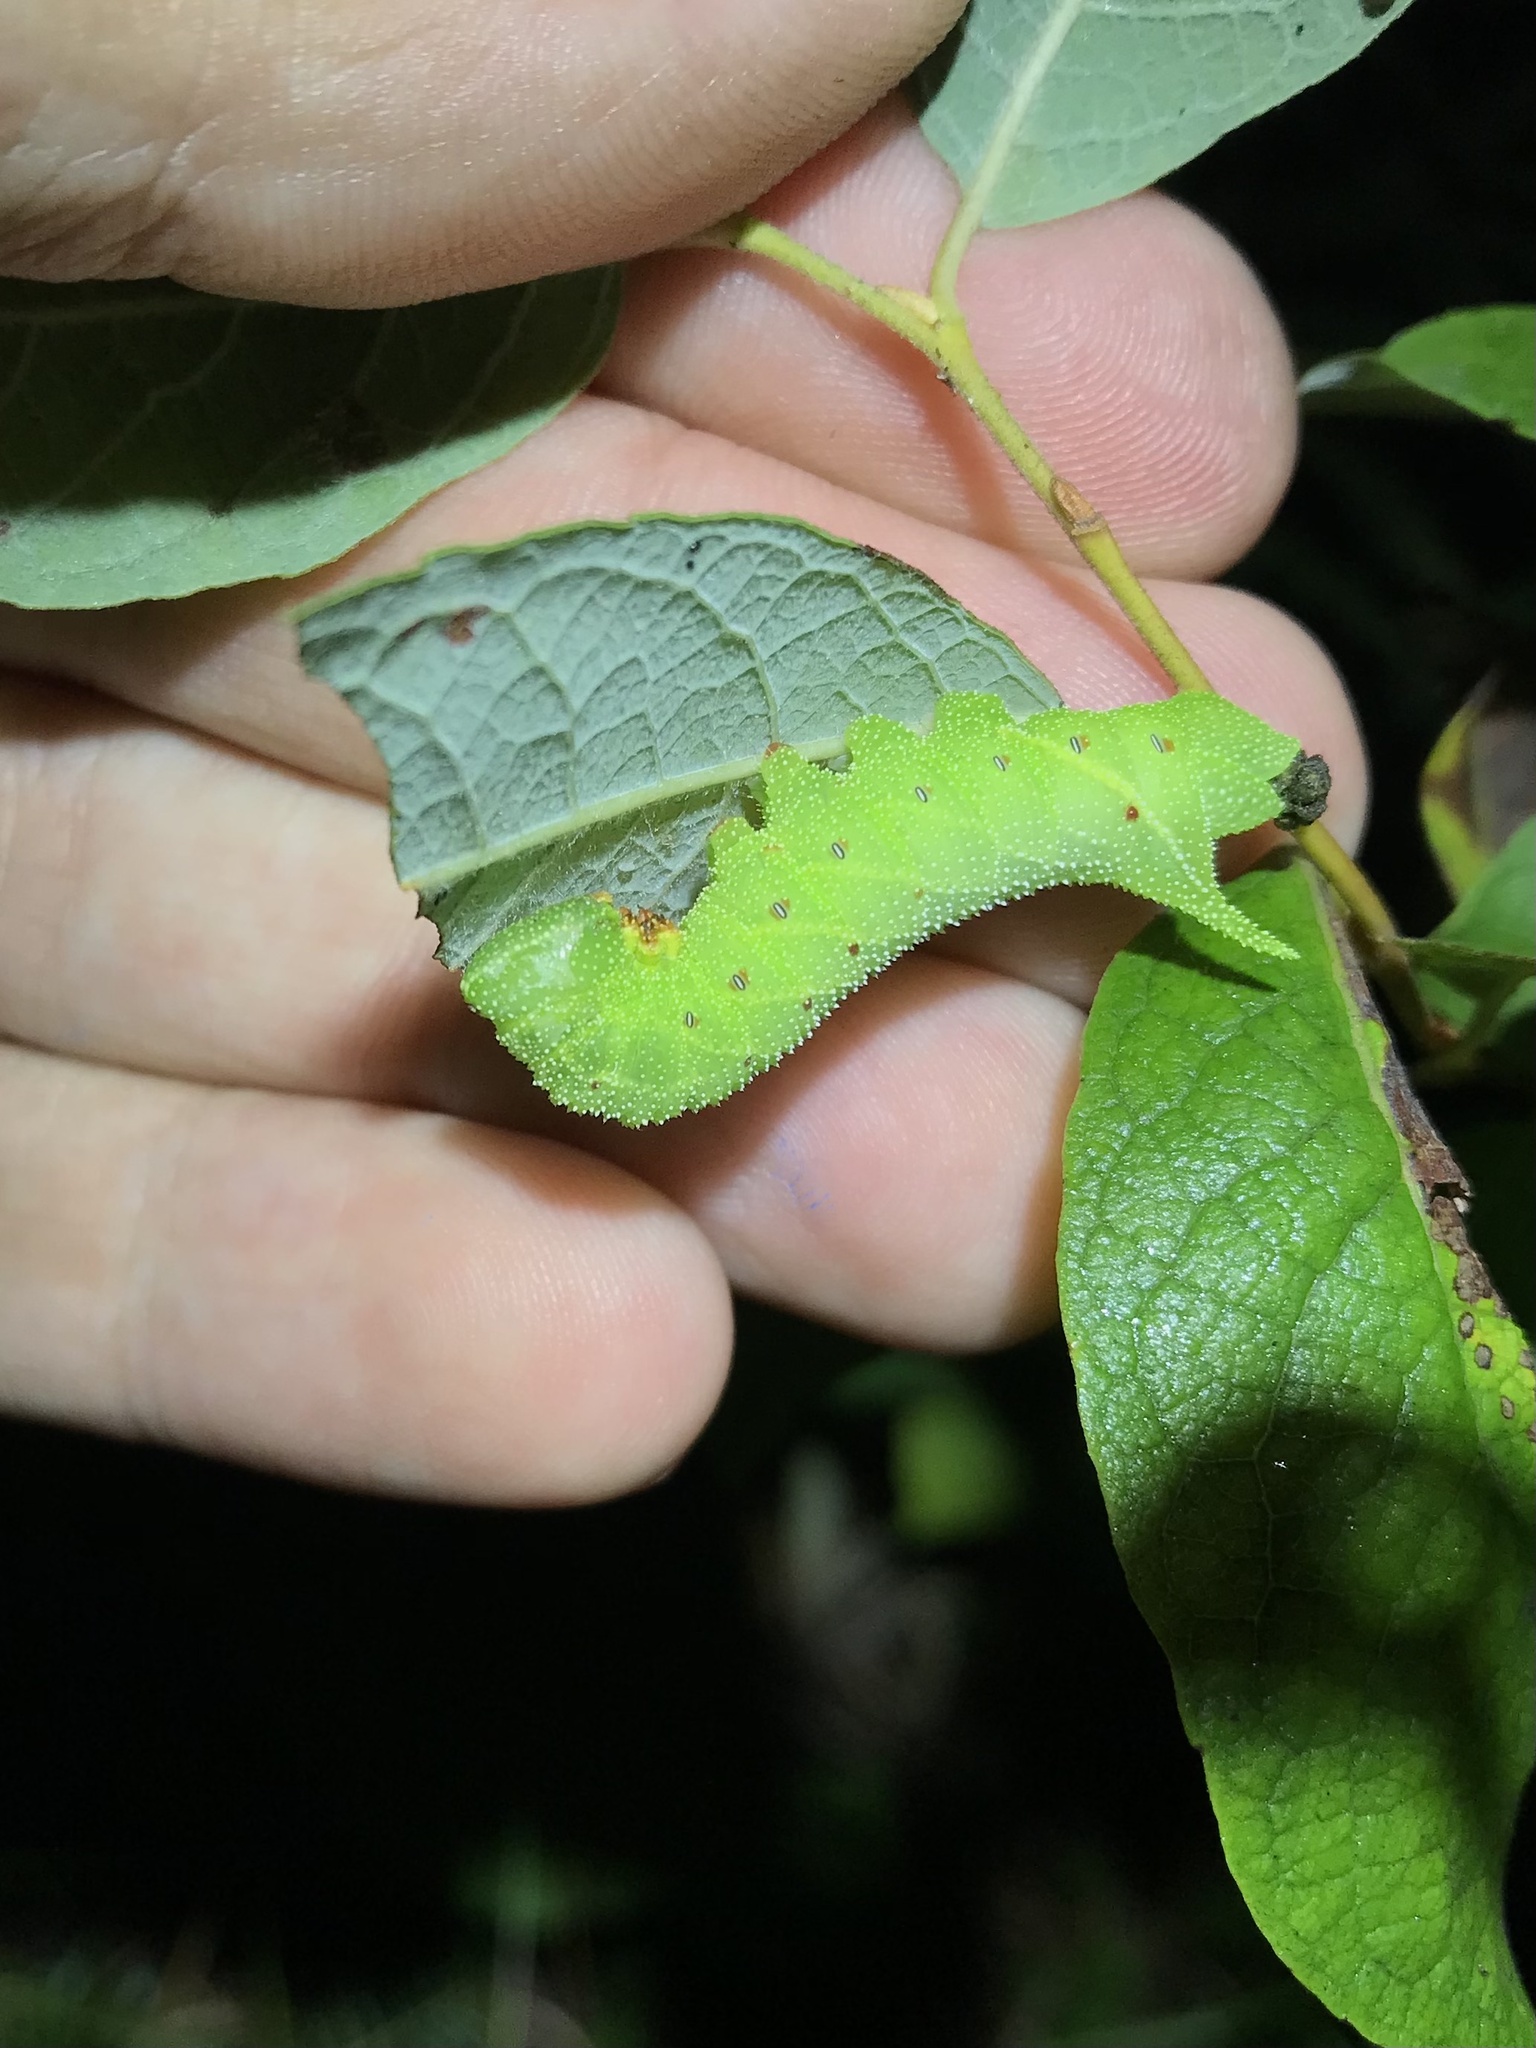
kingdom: Animalia
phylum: Arthropoda
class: Insecta
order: Lepidoptera
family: Sphingidae
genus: Paonias
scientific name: Paonias excaecata
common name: Blind-eyed sphinx
